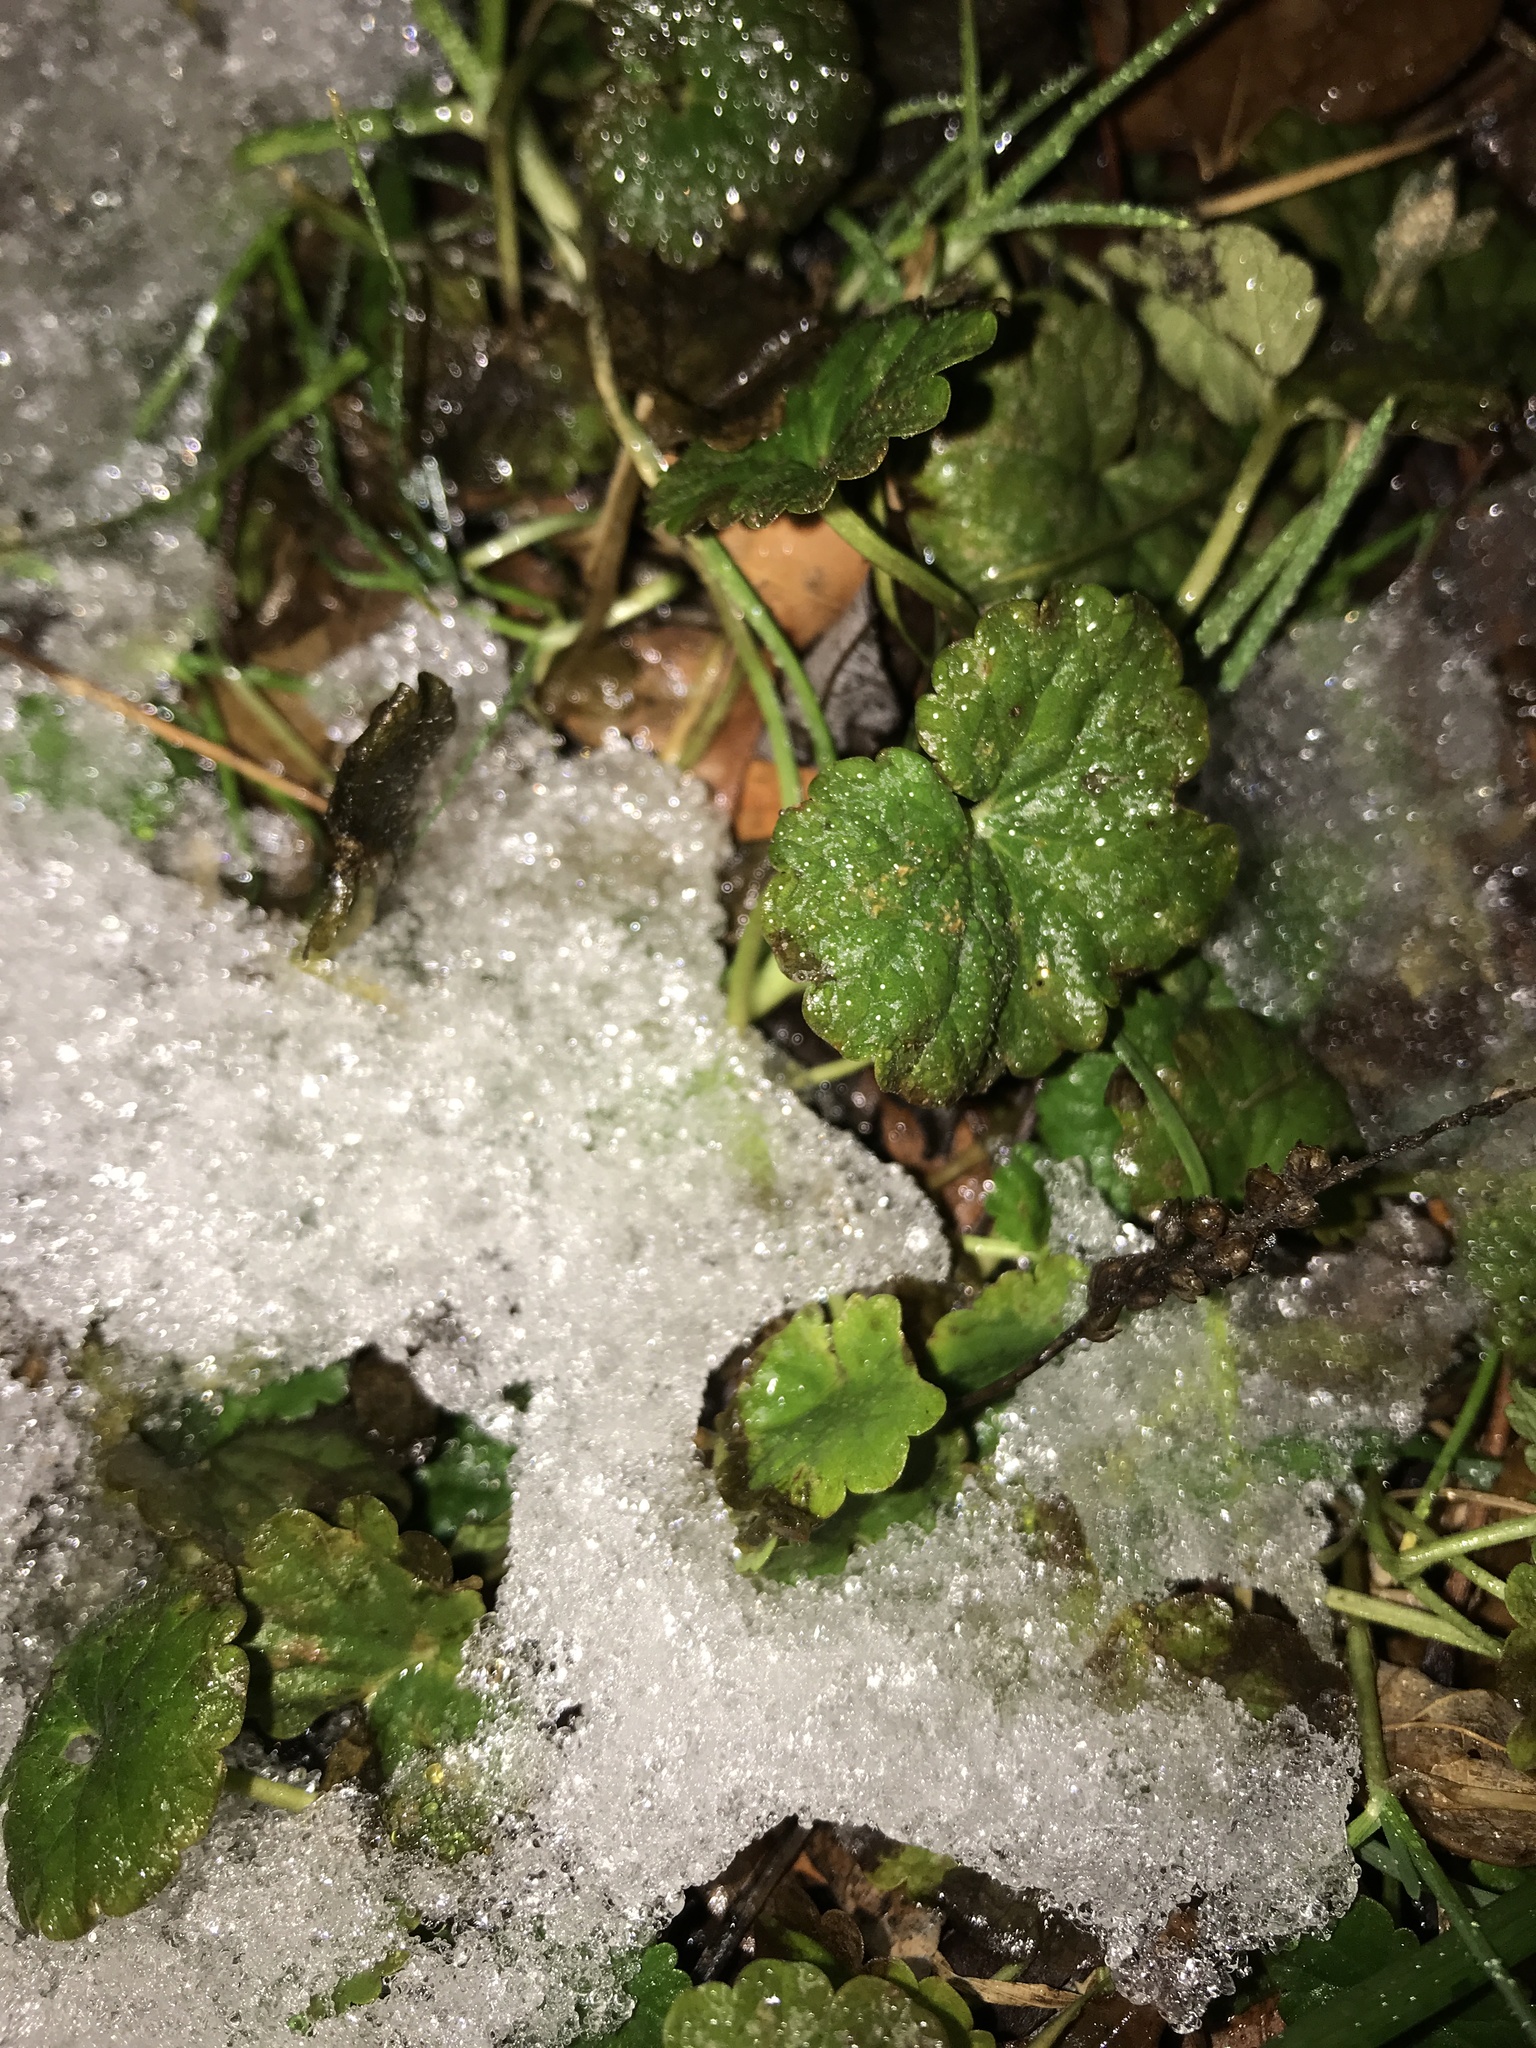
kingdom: Plantae
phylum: Tracheophyta
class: Magnoliopsida
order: Lamiales
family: Lamiaceae
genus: Glechoma
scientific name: Glechoma hederacea
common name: Ground ivy
